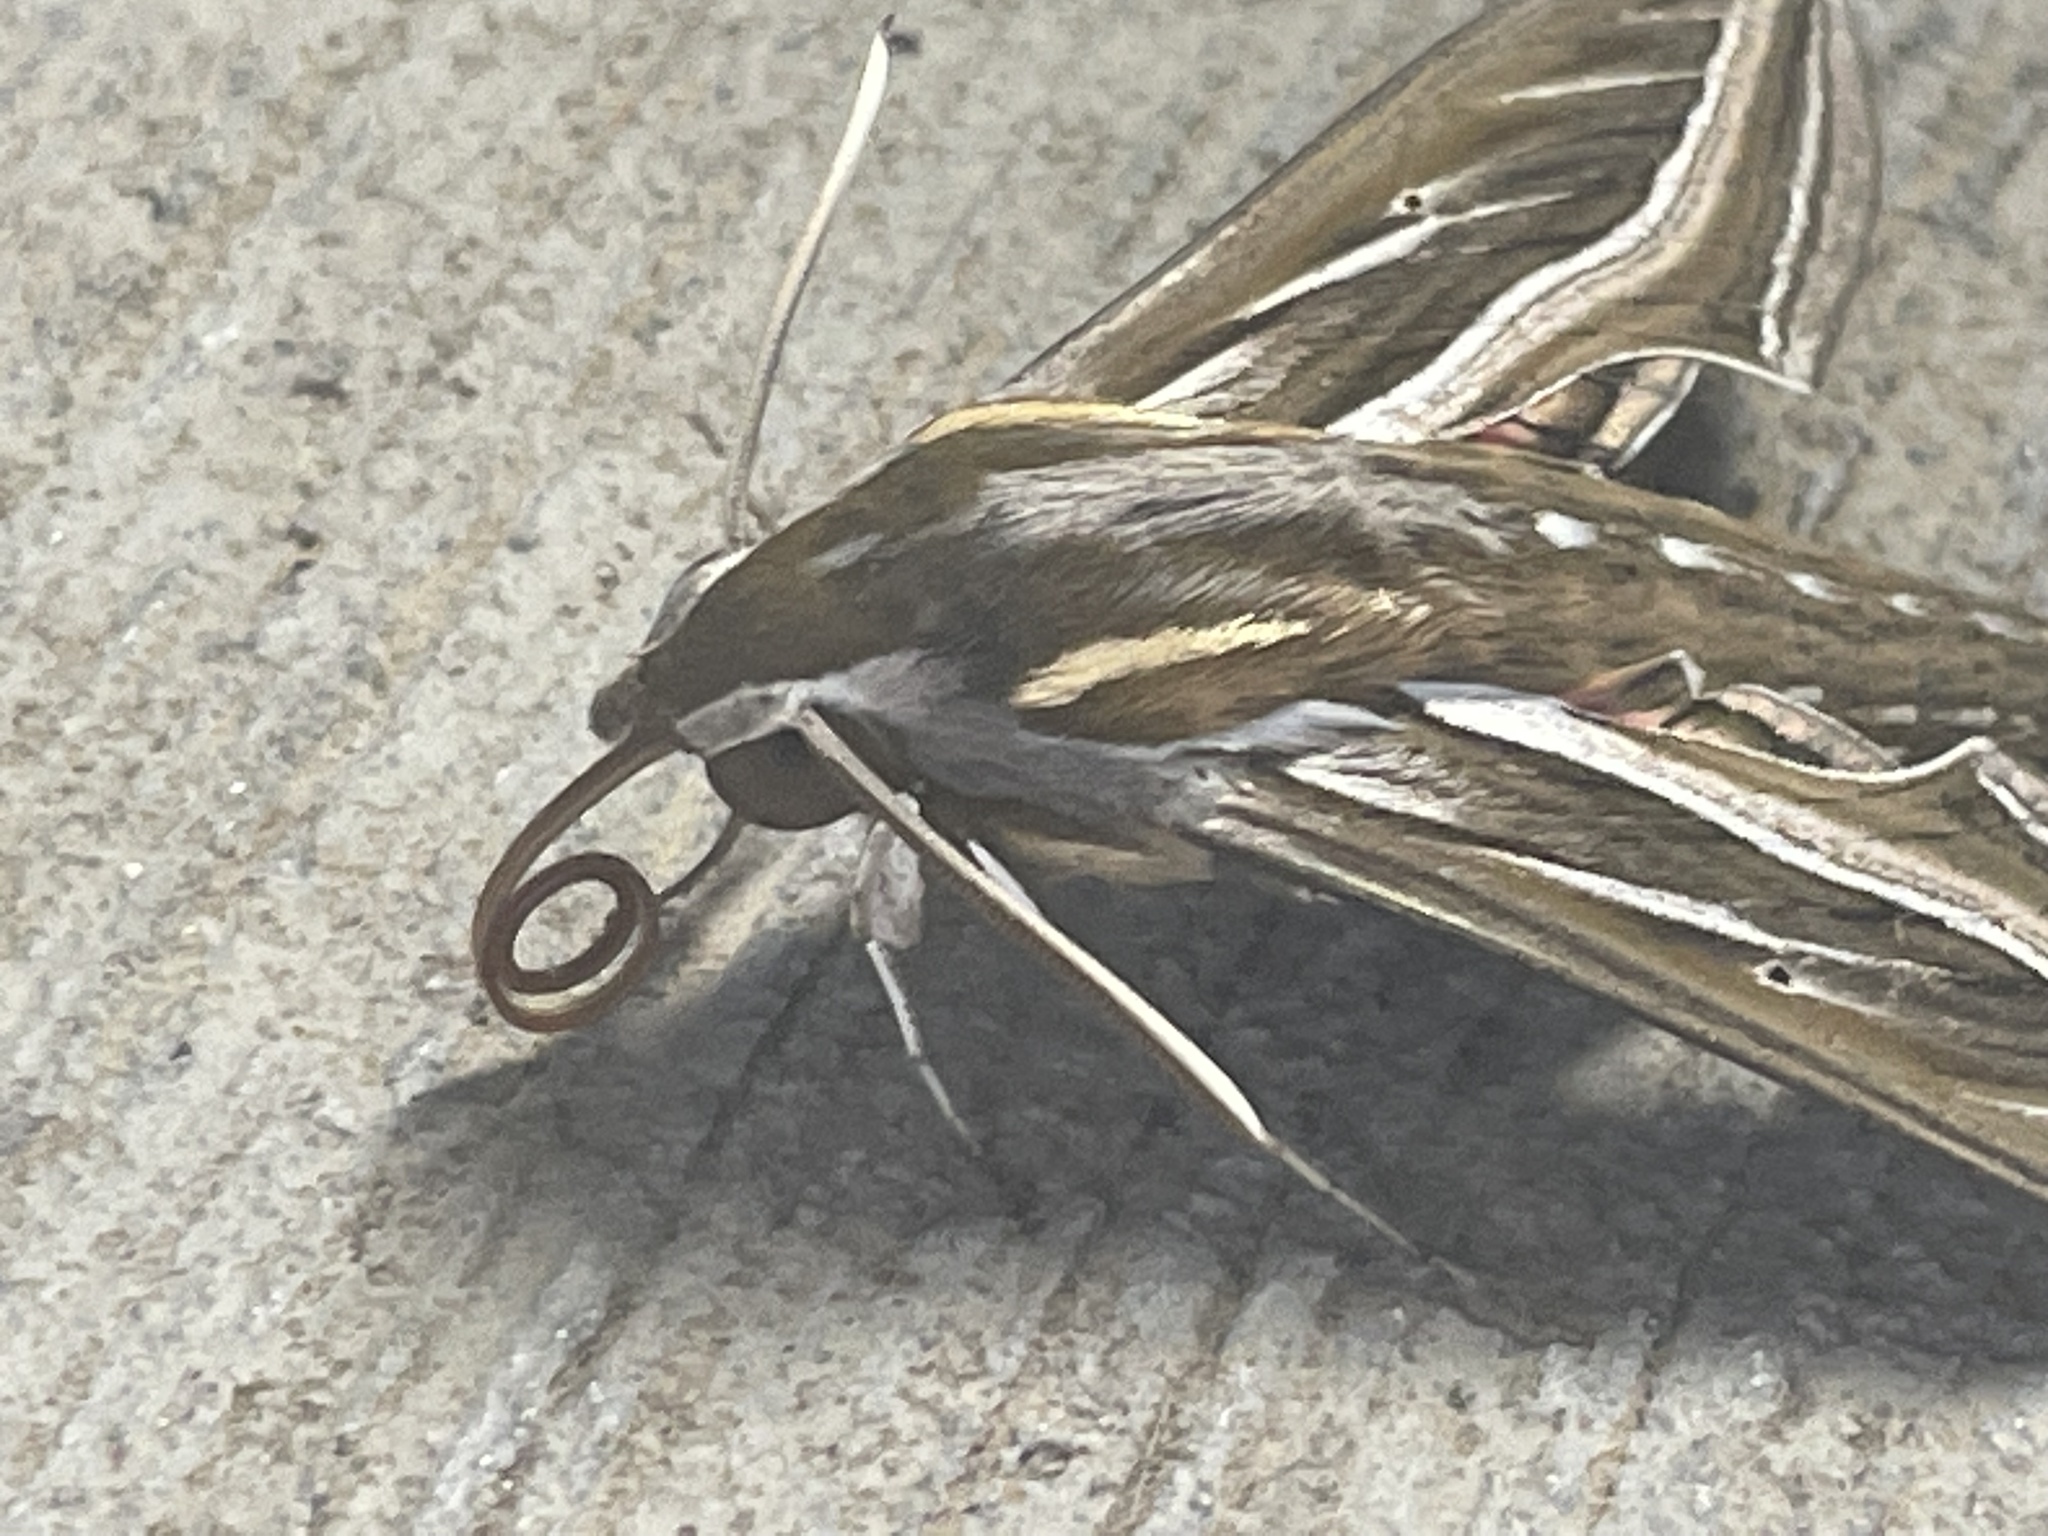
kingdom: Animalia
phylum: Arthropoda
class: Insecta
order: Lepidoptera
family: Sphingidae
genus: Hippotion
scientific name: Hippotion celerio
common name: Silver-striped hawk-moth
